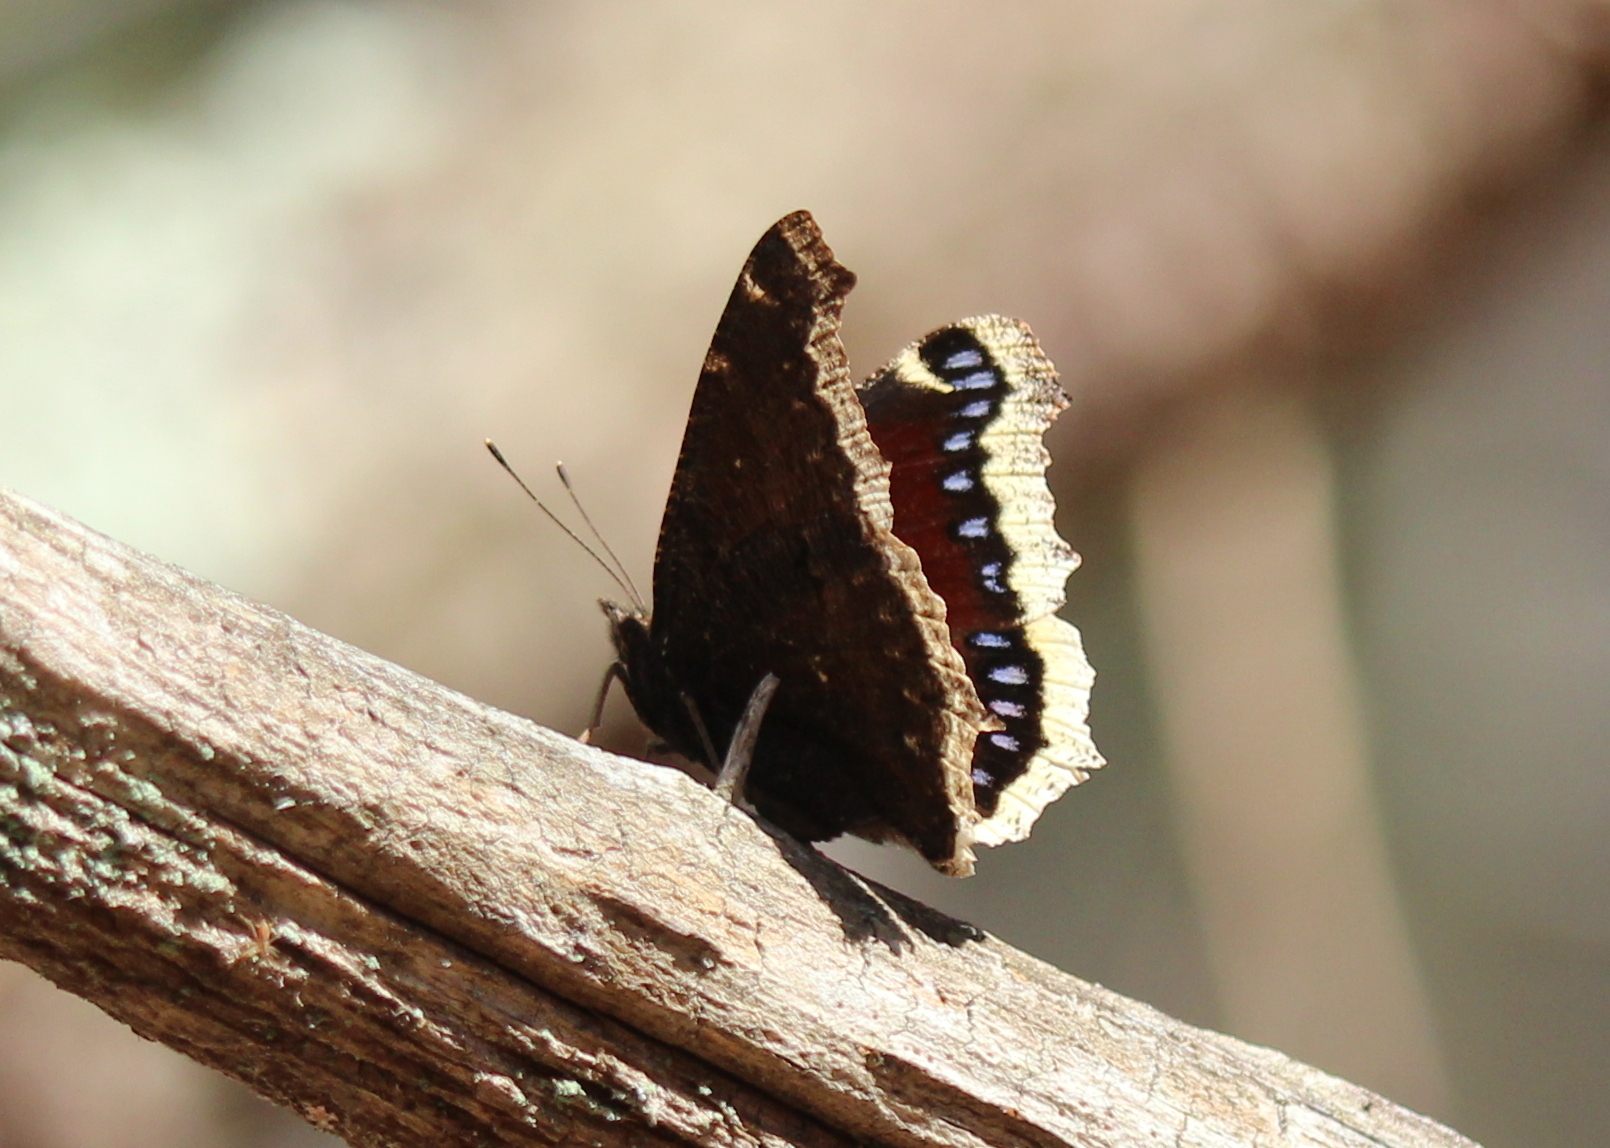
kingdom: Animalia
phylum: Arthropoda
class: Insecta
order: Lepidoptera
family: Nymphalidae
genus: Nymphalis
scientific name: Nymphalis antiopa
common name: Camberwell beauty
